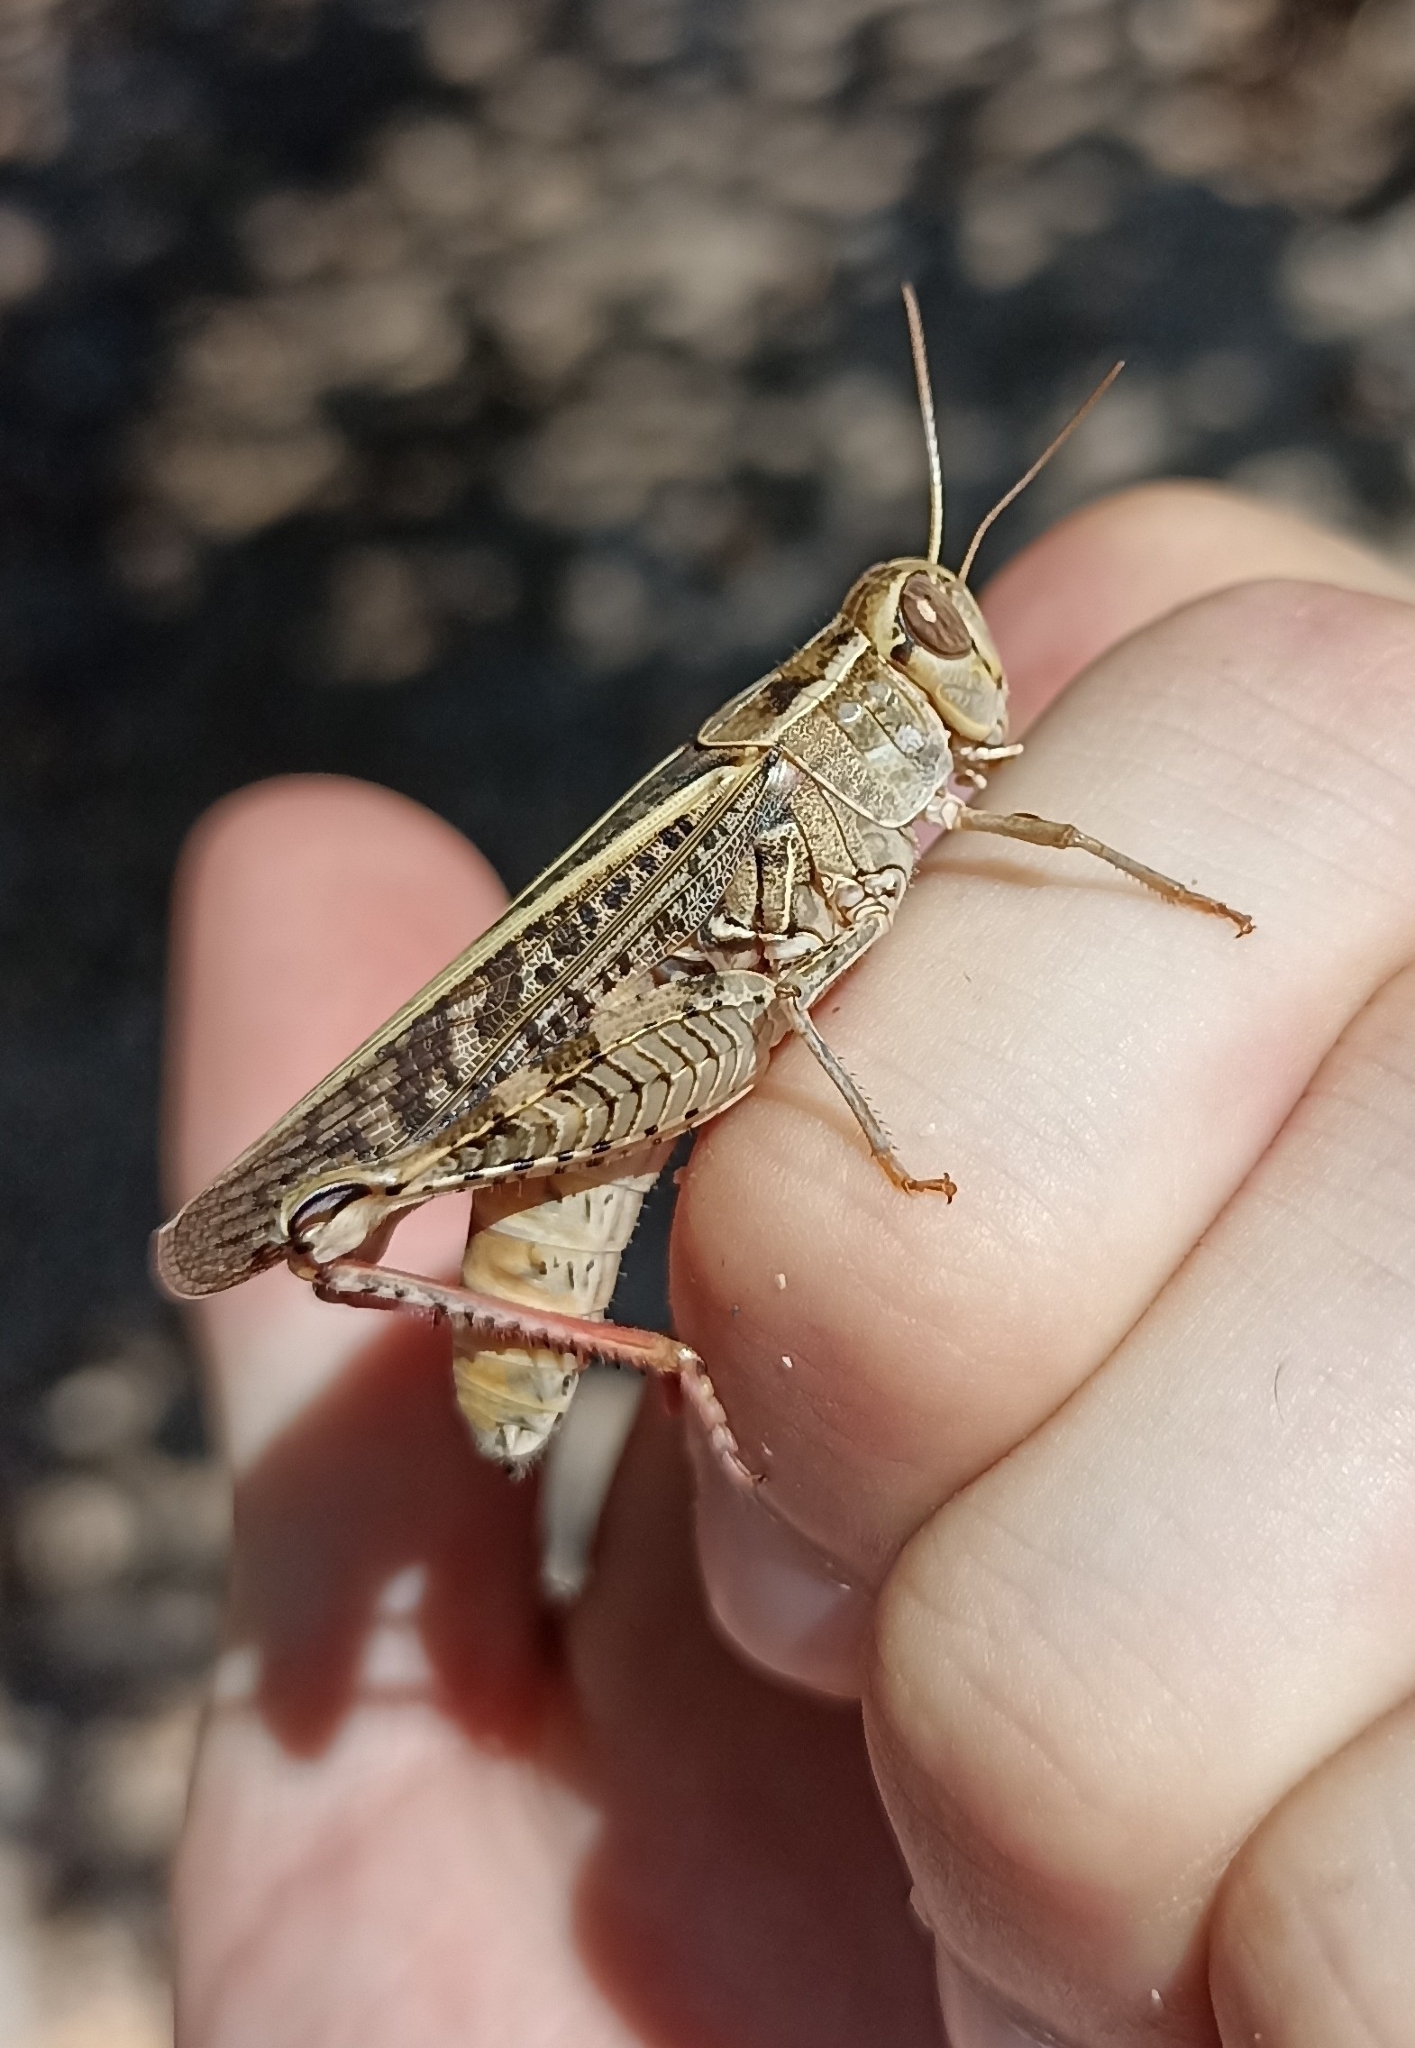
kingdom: Animalia
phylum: Arthropoda
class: Insecta
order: Orthoptera
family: Acrididae
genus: Calliptamus
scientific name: Calliptamus italicus
